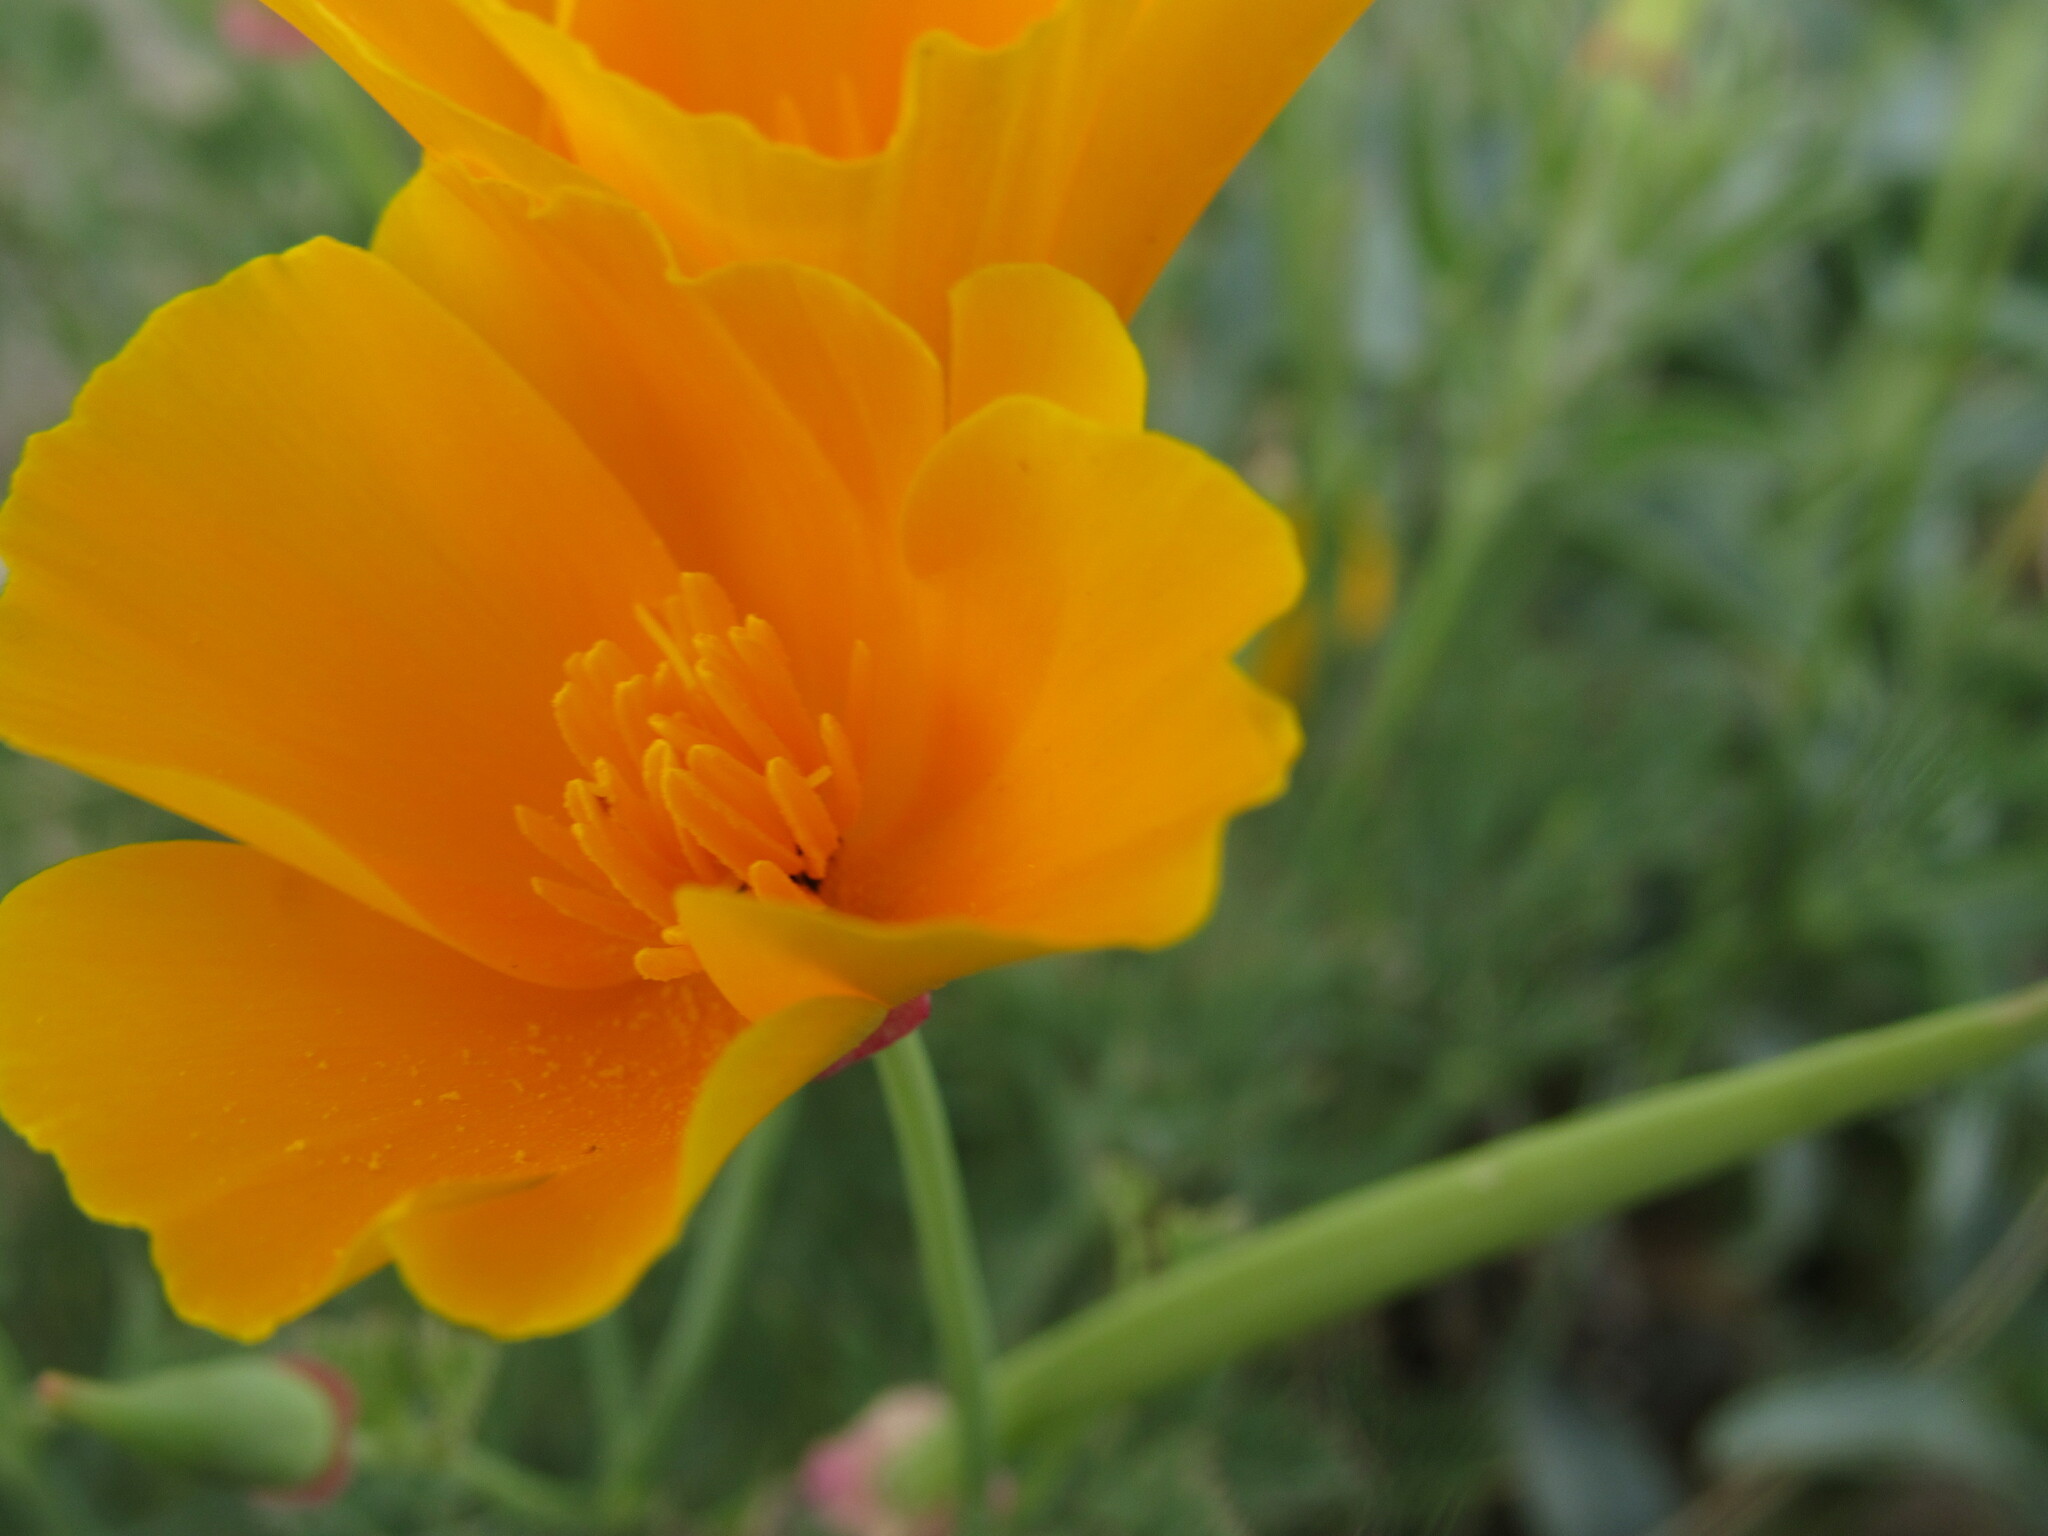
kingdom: Plantae
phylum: Tracheophyta
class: Magnoliopsida
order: Ranunculales
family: Papaveraceae
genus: Eschscholzia
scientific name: Eschscholzia californica
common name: California poppy
